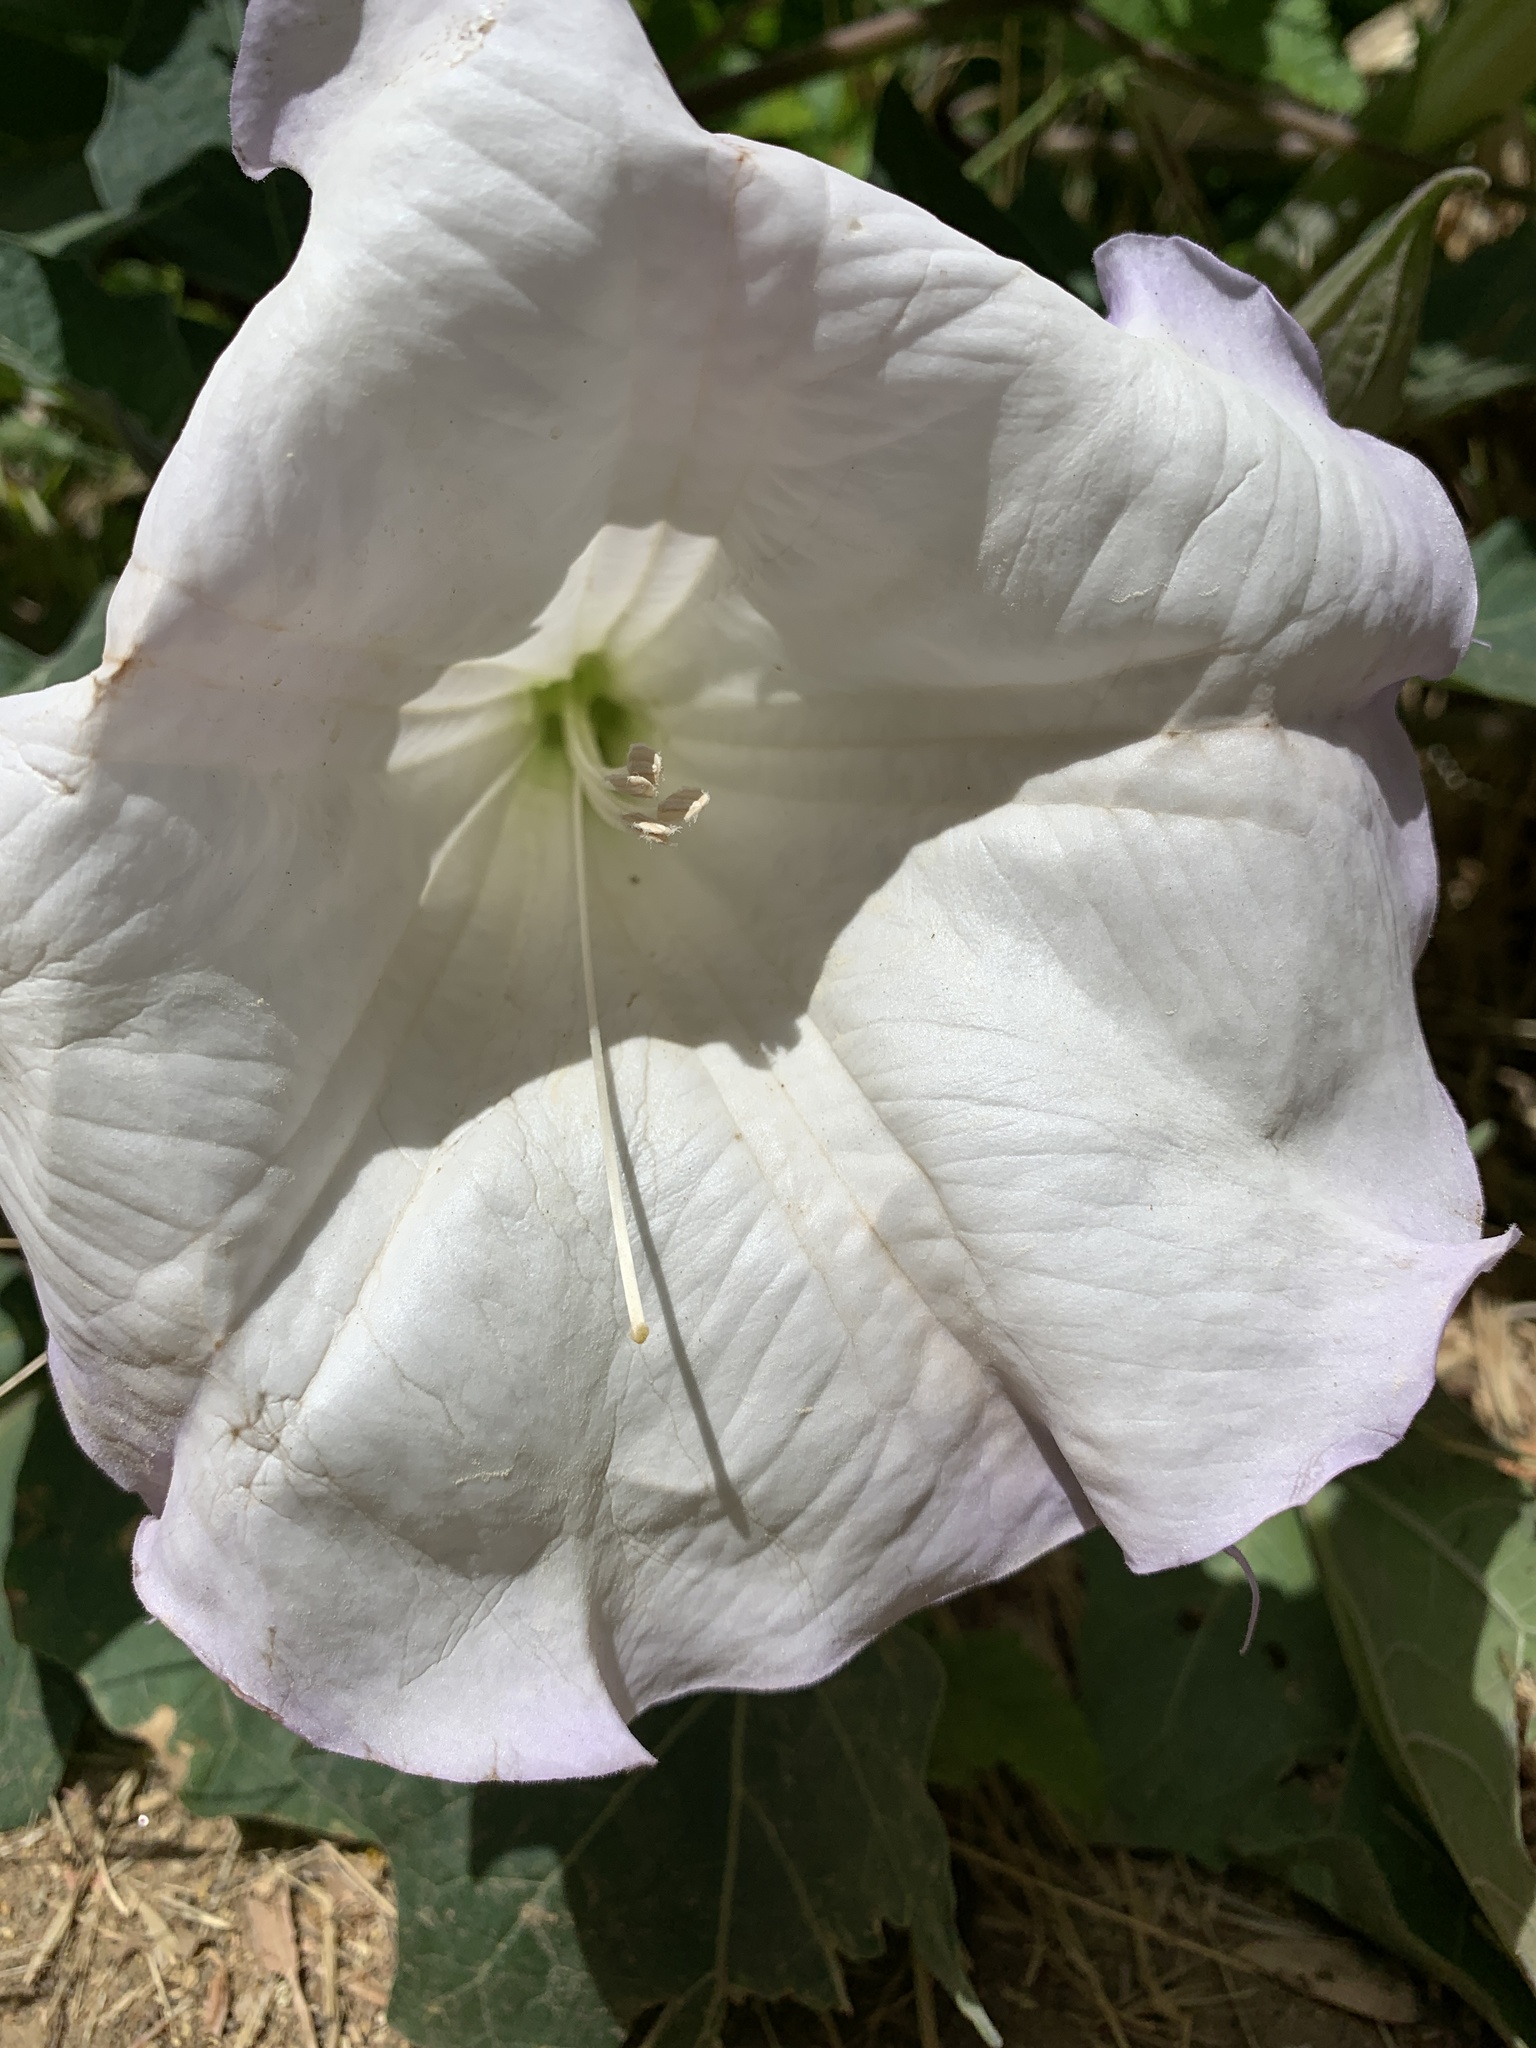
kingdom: Plantae
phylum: Tracheophyta
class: Magnoliopsida
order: Solanales
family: Solanaceae
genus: Datura
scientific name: Datura wrightii
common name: Sacred thorn-apple
